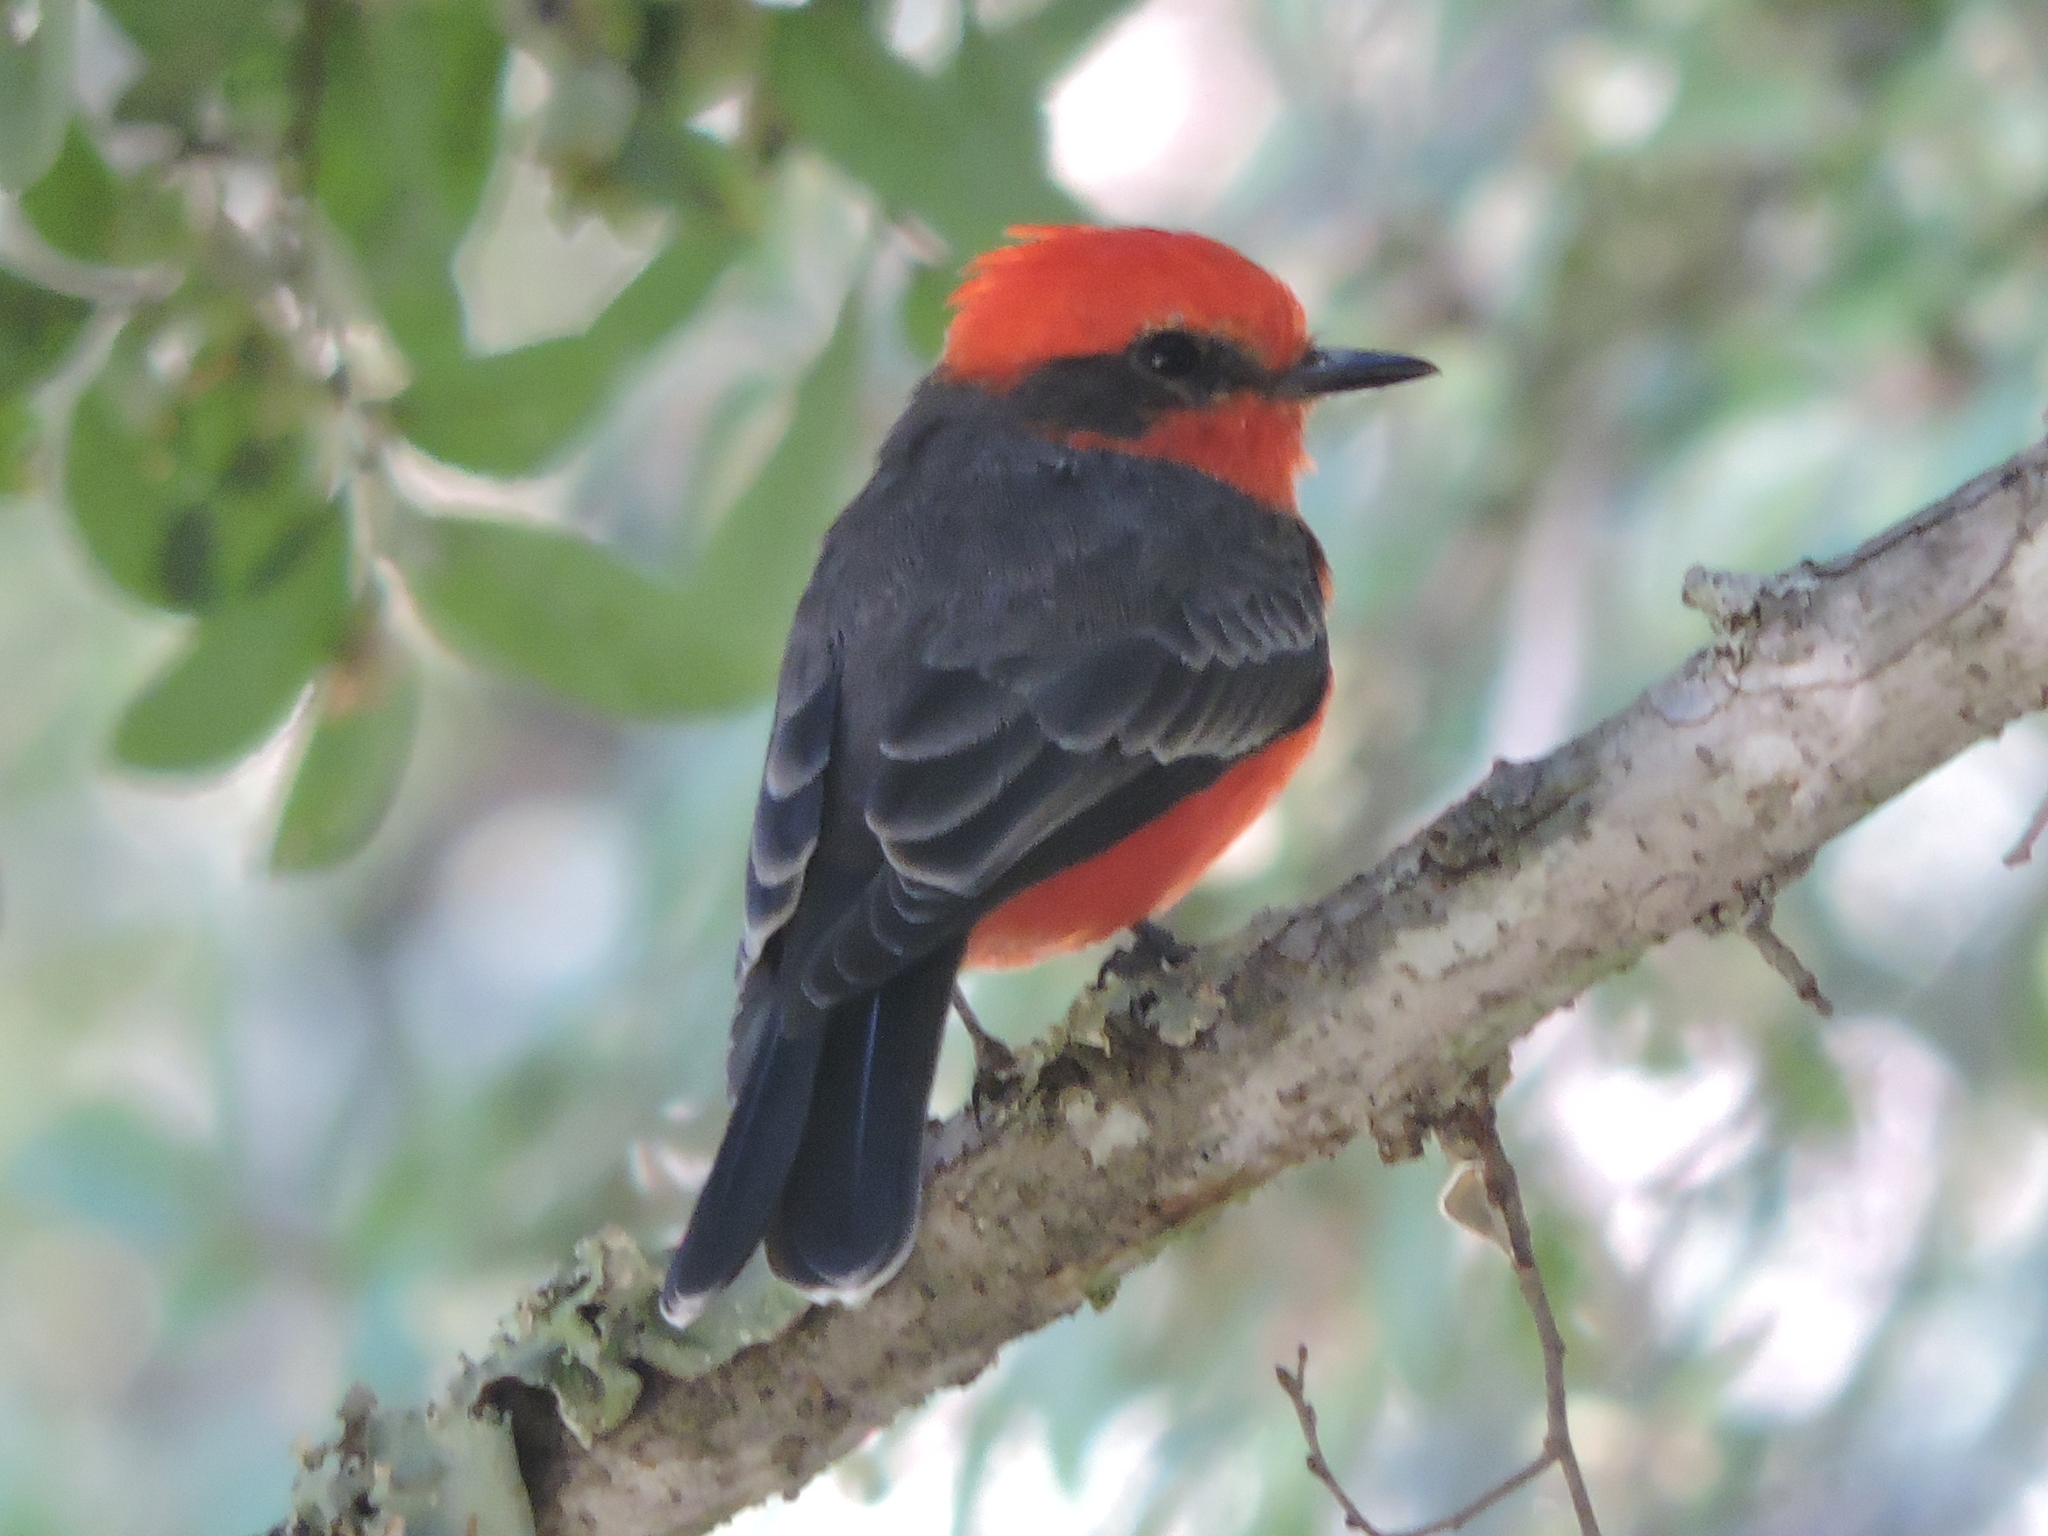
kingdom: Animalia
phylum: Chordata
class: Aves
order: Passeriformes
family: Tyrannidae
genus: Pyrocephalus
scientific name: Pyrocephalus rubinus
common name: Vermilion flycatcher
